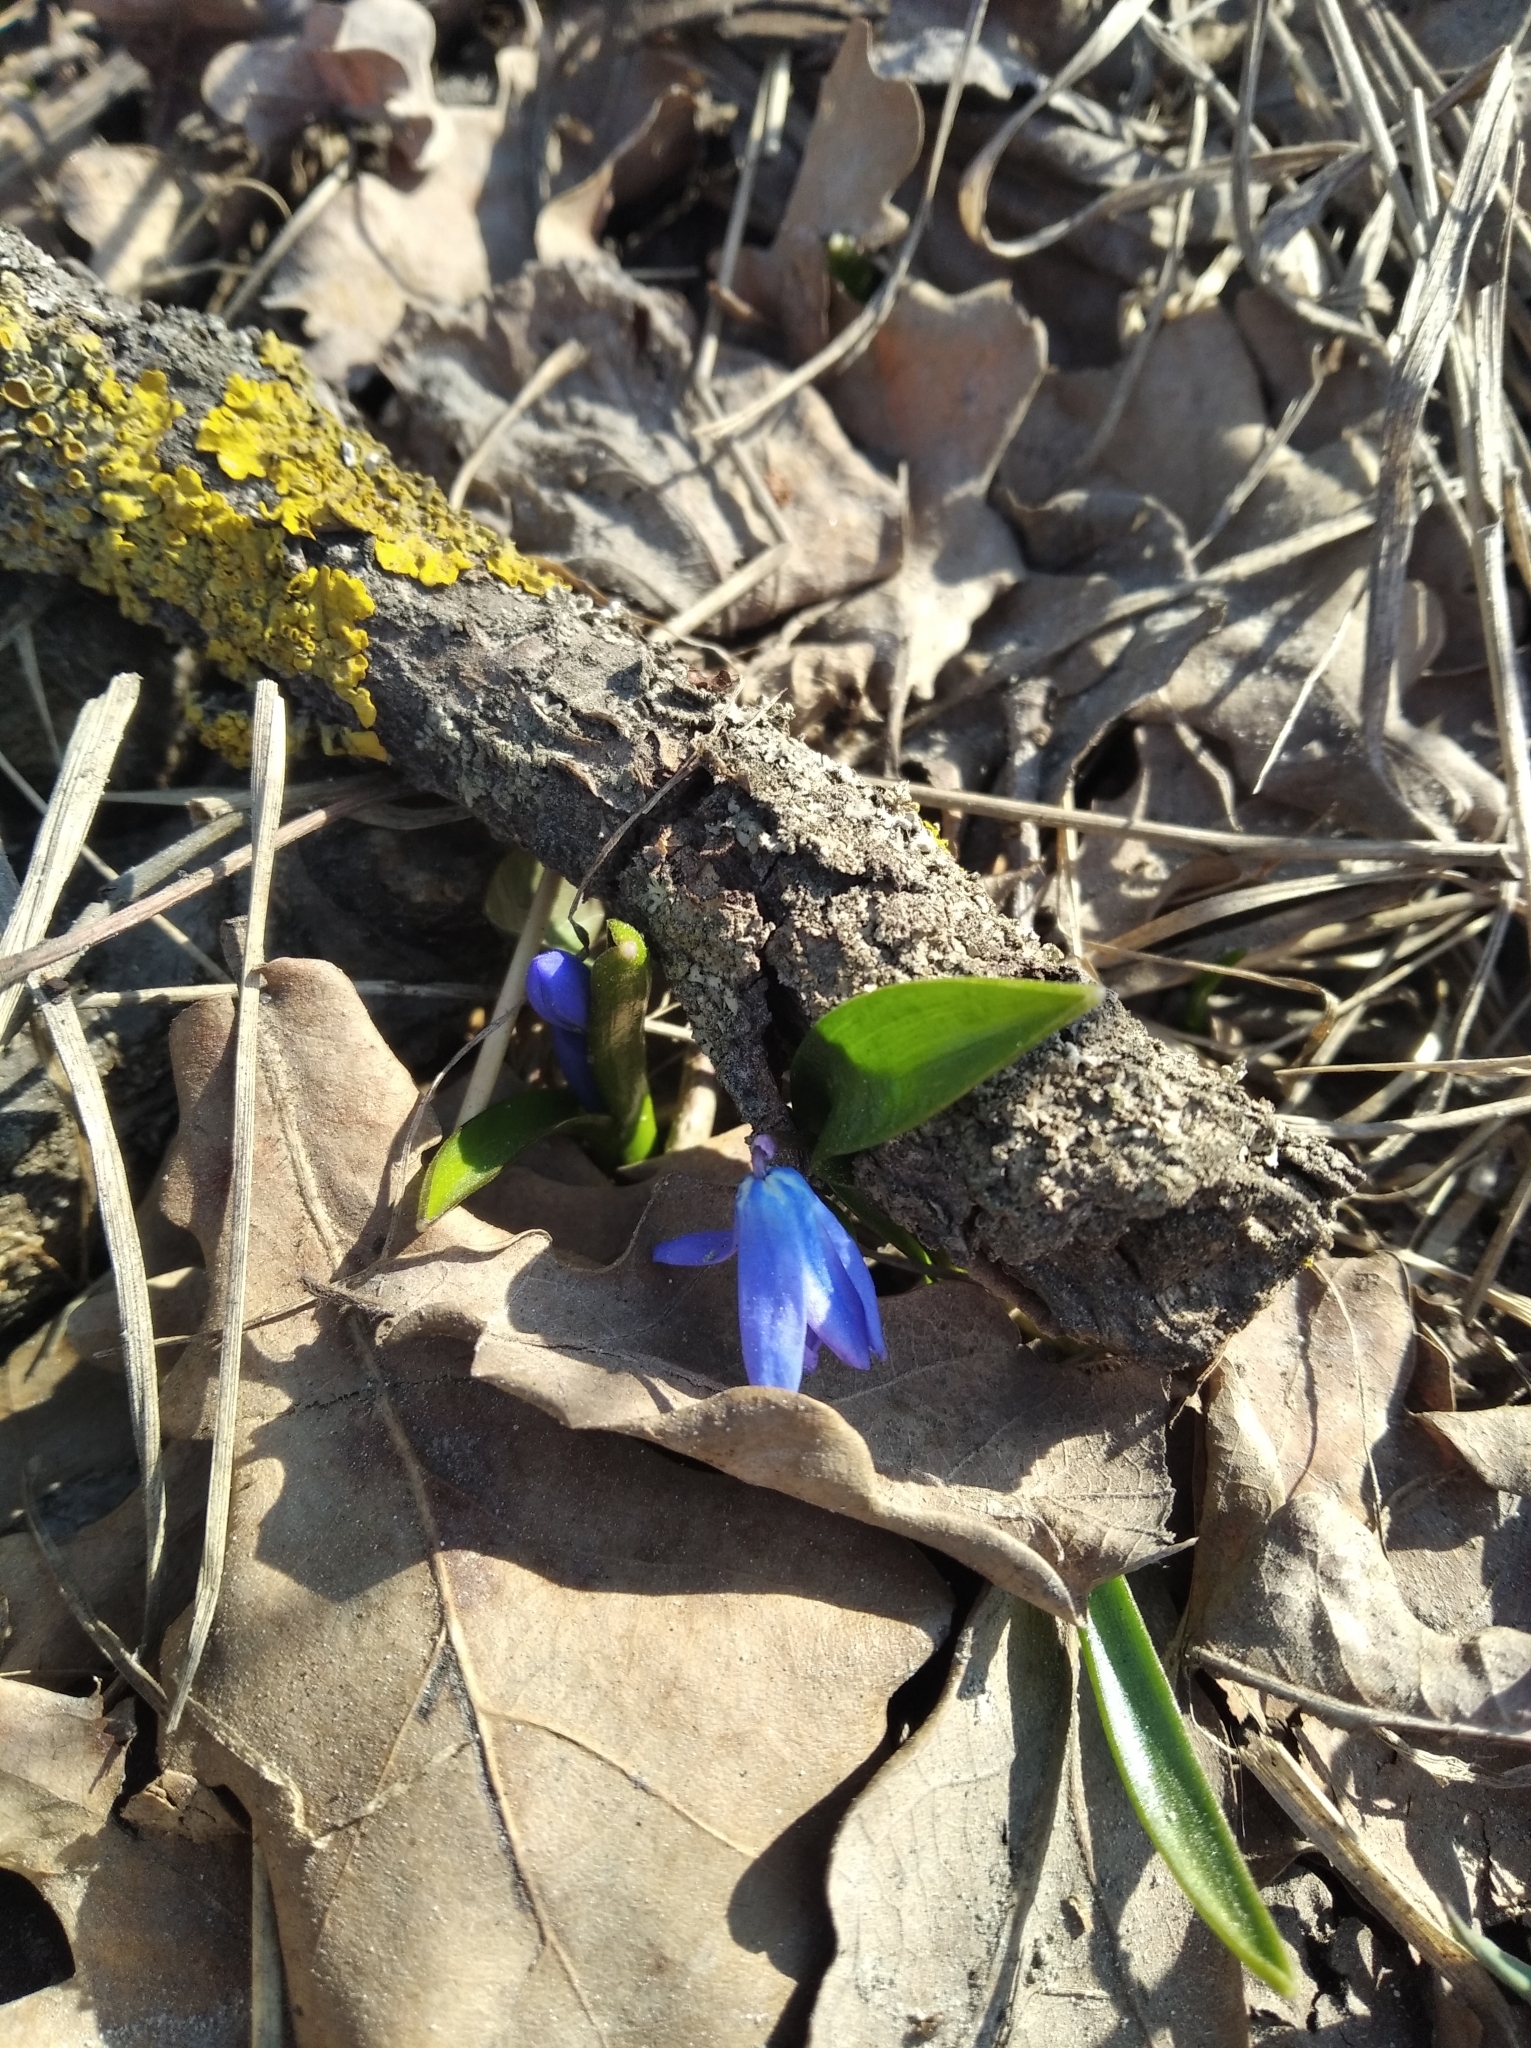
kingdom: Plantae
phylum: Tracheophyta
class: Liliopsida
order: Asparagales
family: Asparagaceae
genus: Scilla
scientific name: Scilla siberica
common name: Siberian squill
